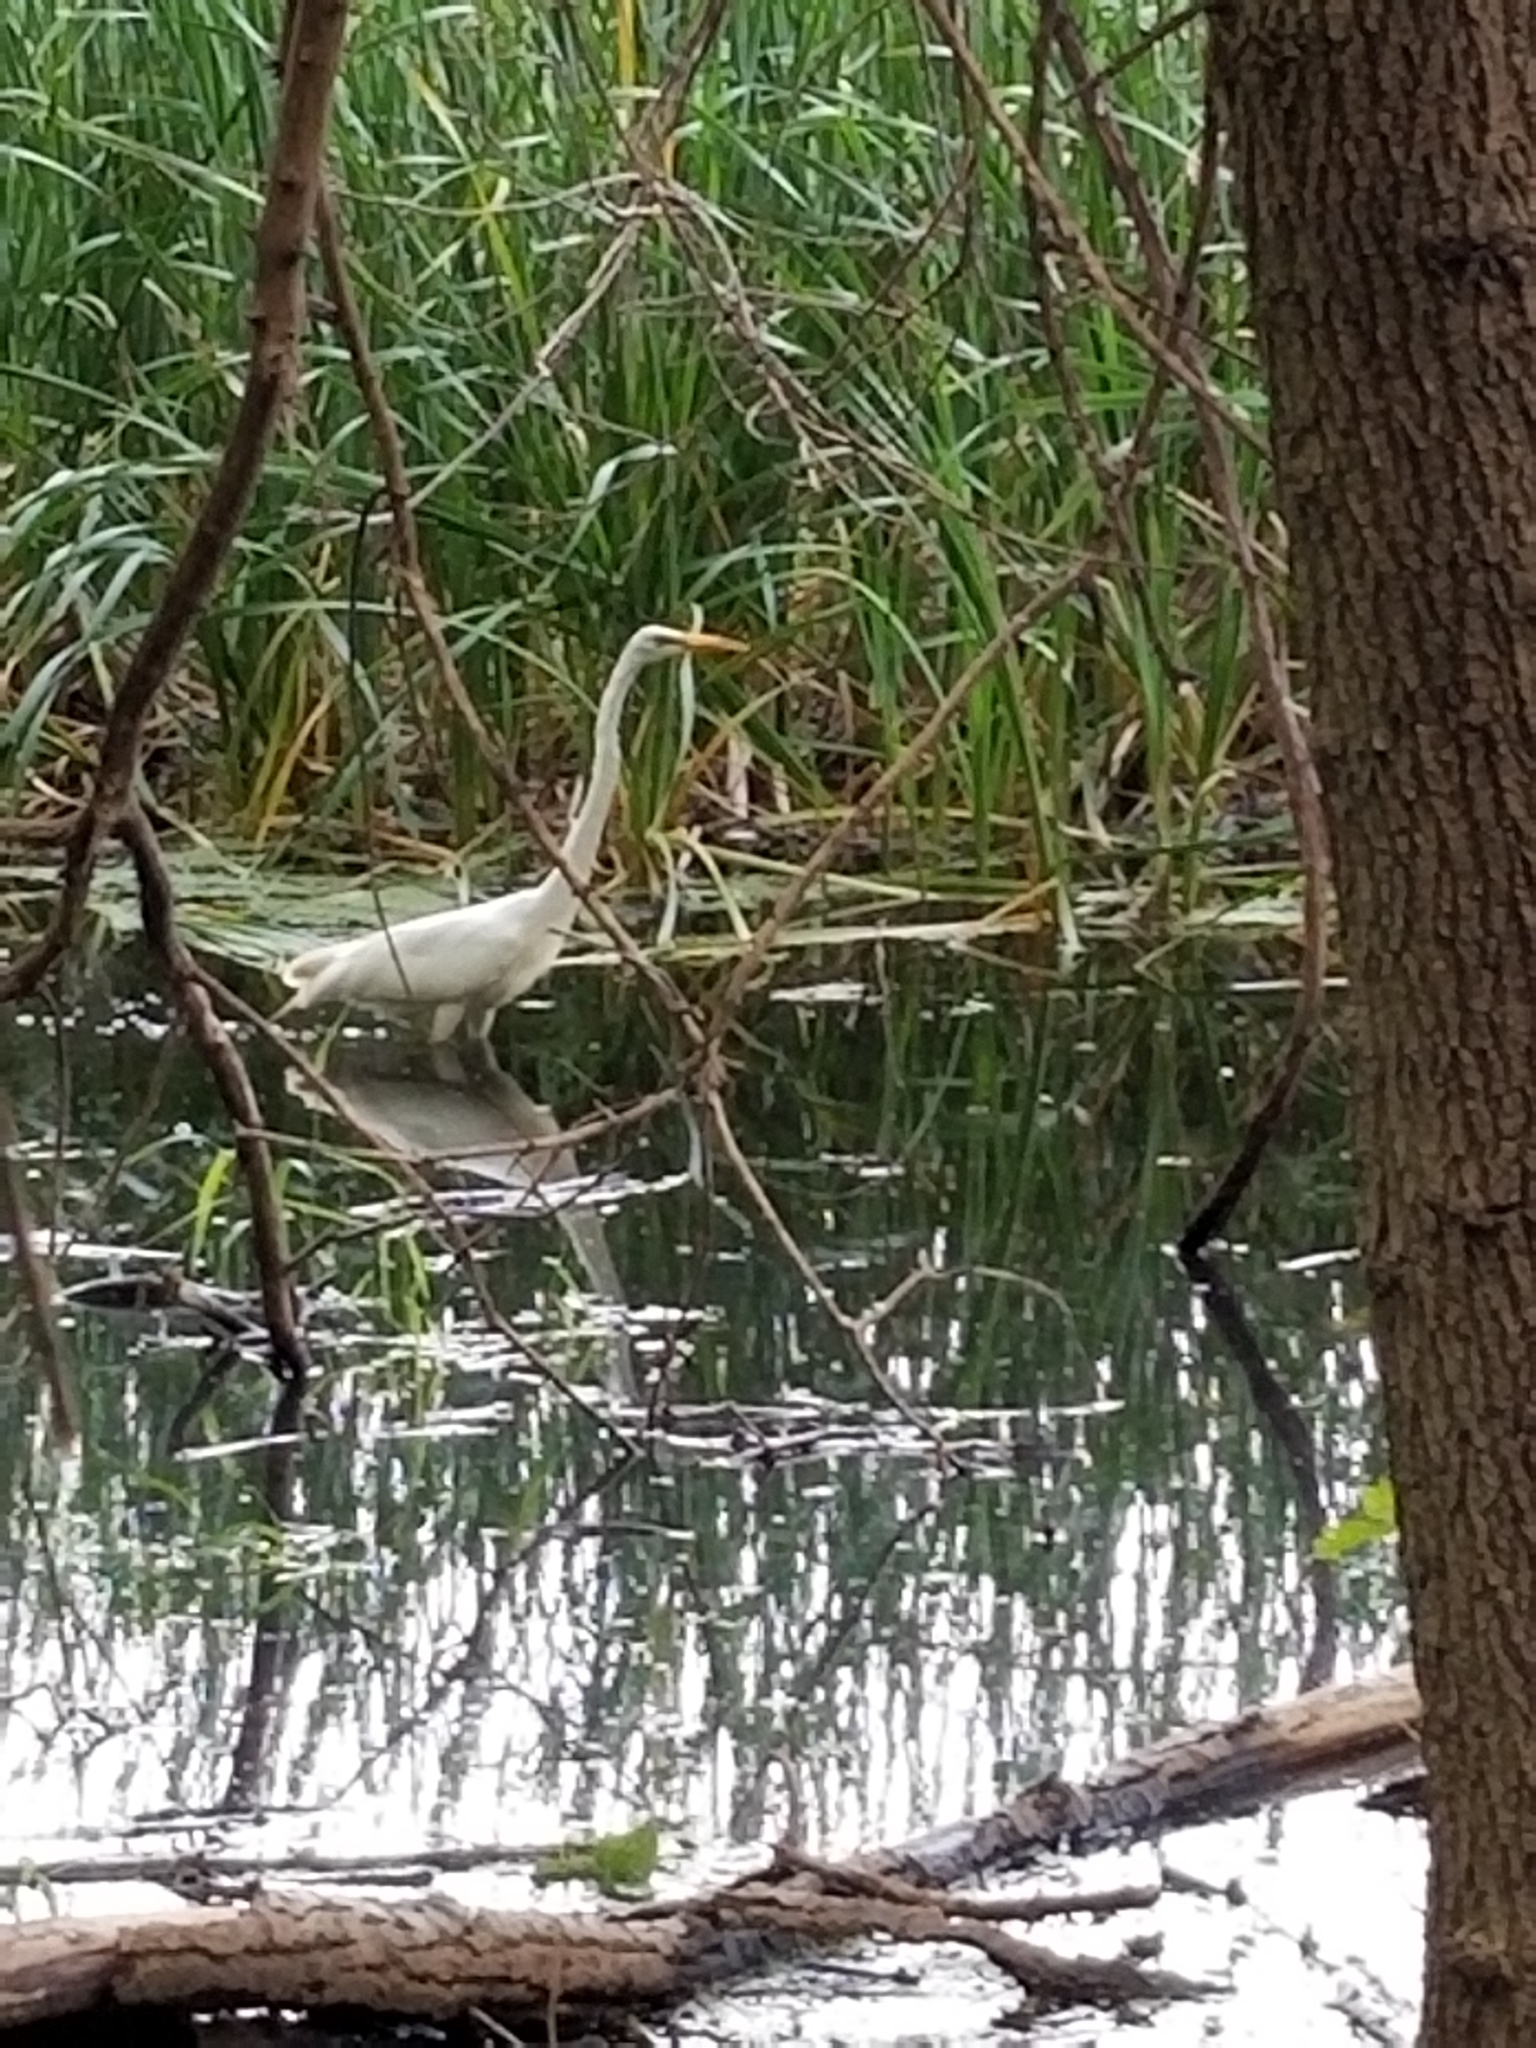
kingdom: Animalia
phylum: Chordata
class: Aves
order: Pelecaniformes
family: Ardeidae
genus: Ardea
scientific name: Ardea alba
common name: Great egret
